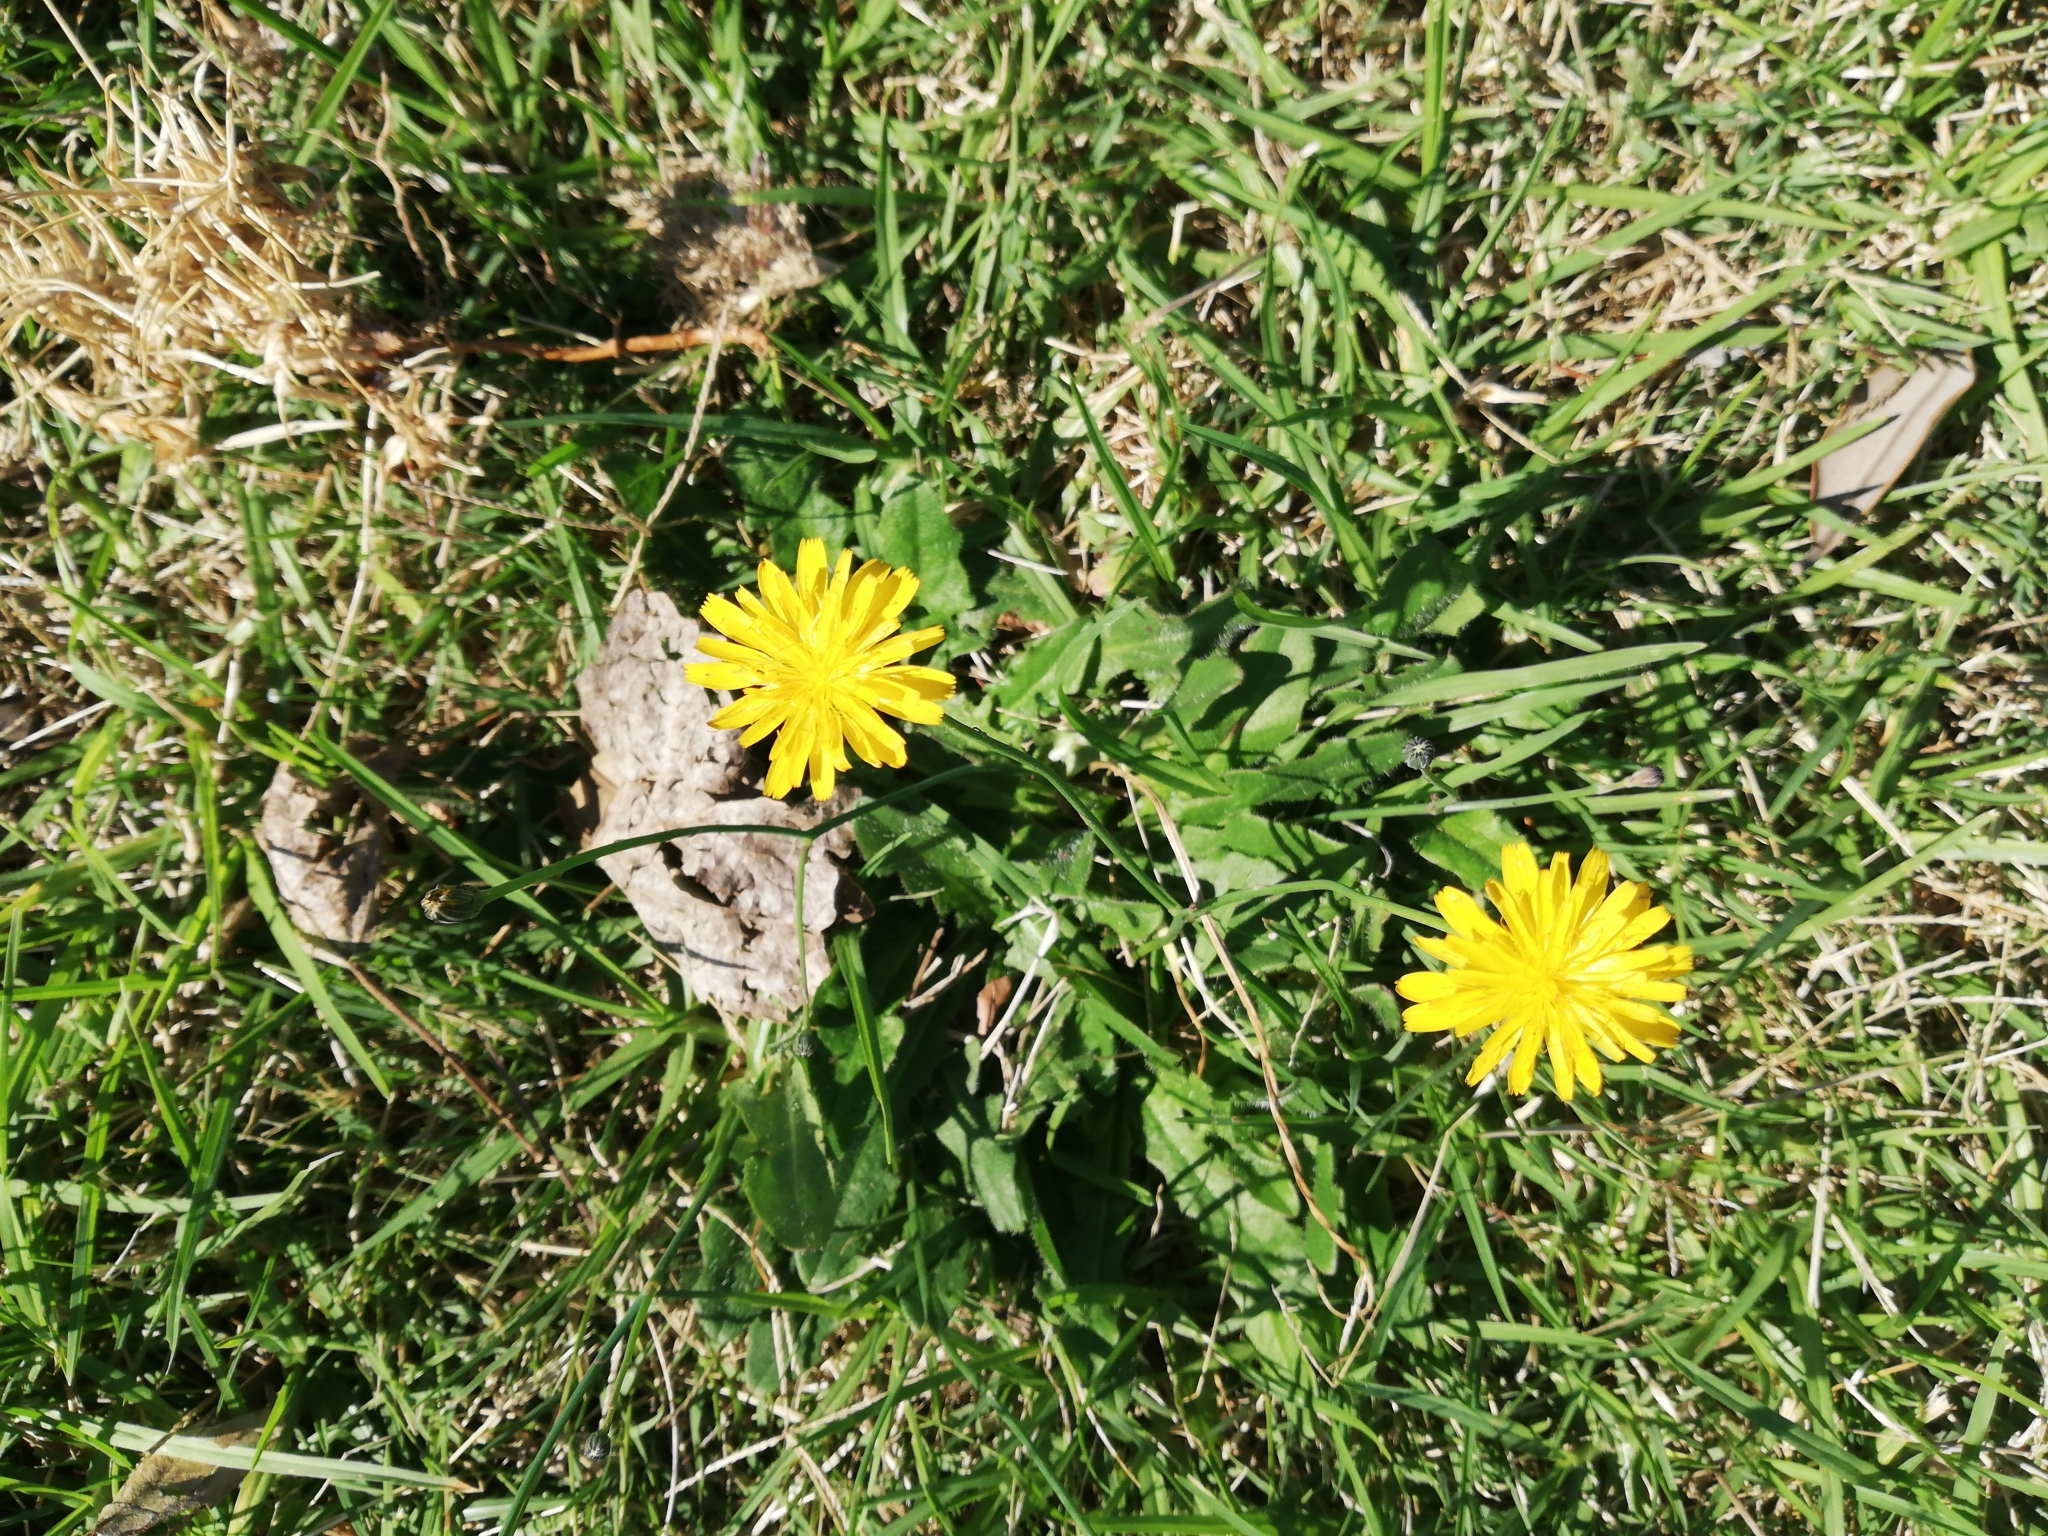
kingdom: Plantae
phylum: Tracheophyta
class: Magnoliopsida
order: Asterales
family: Asteraceae
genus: Hypochaeris
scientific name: Hypochaeris radicata
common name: Flatweed
